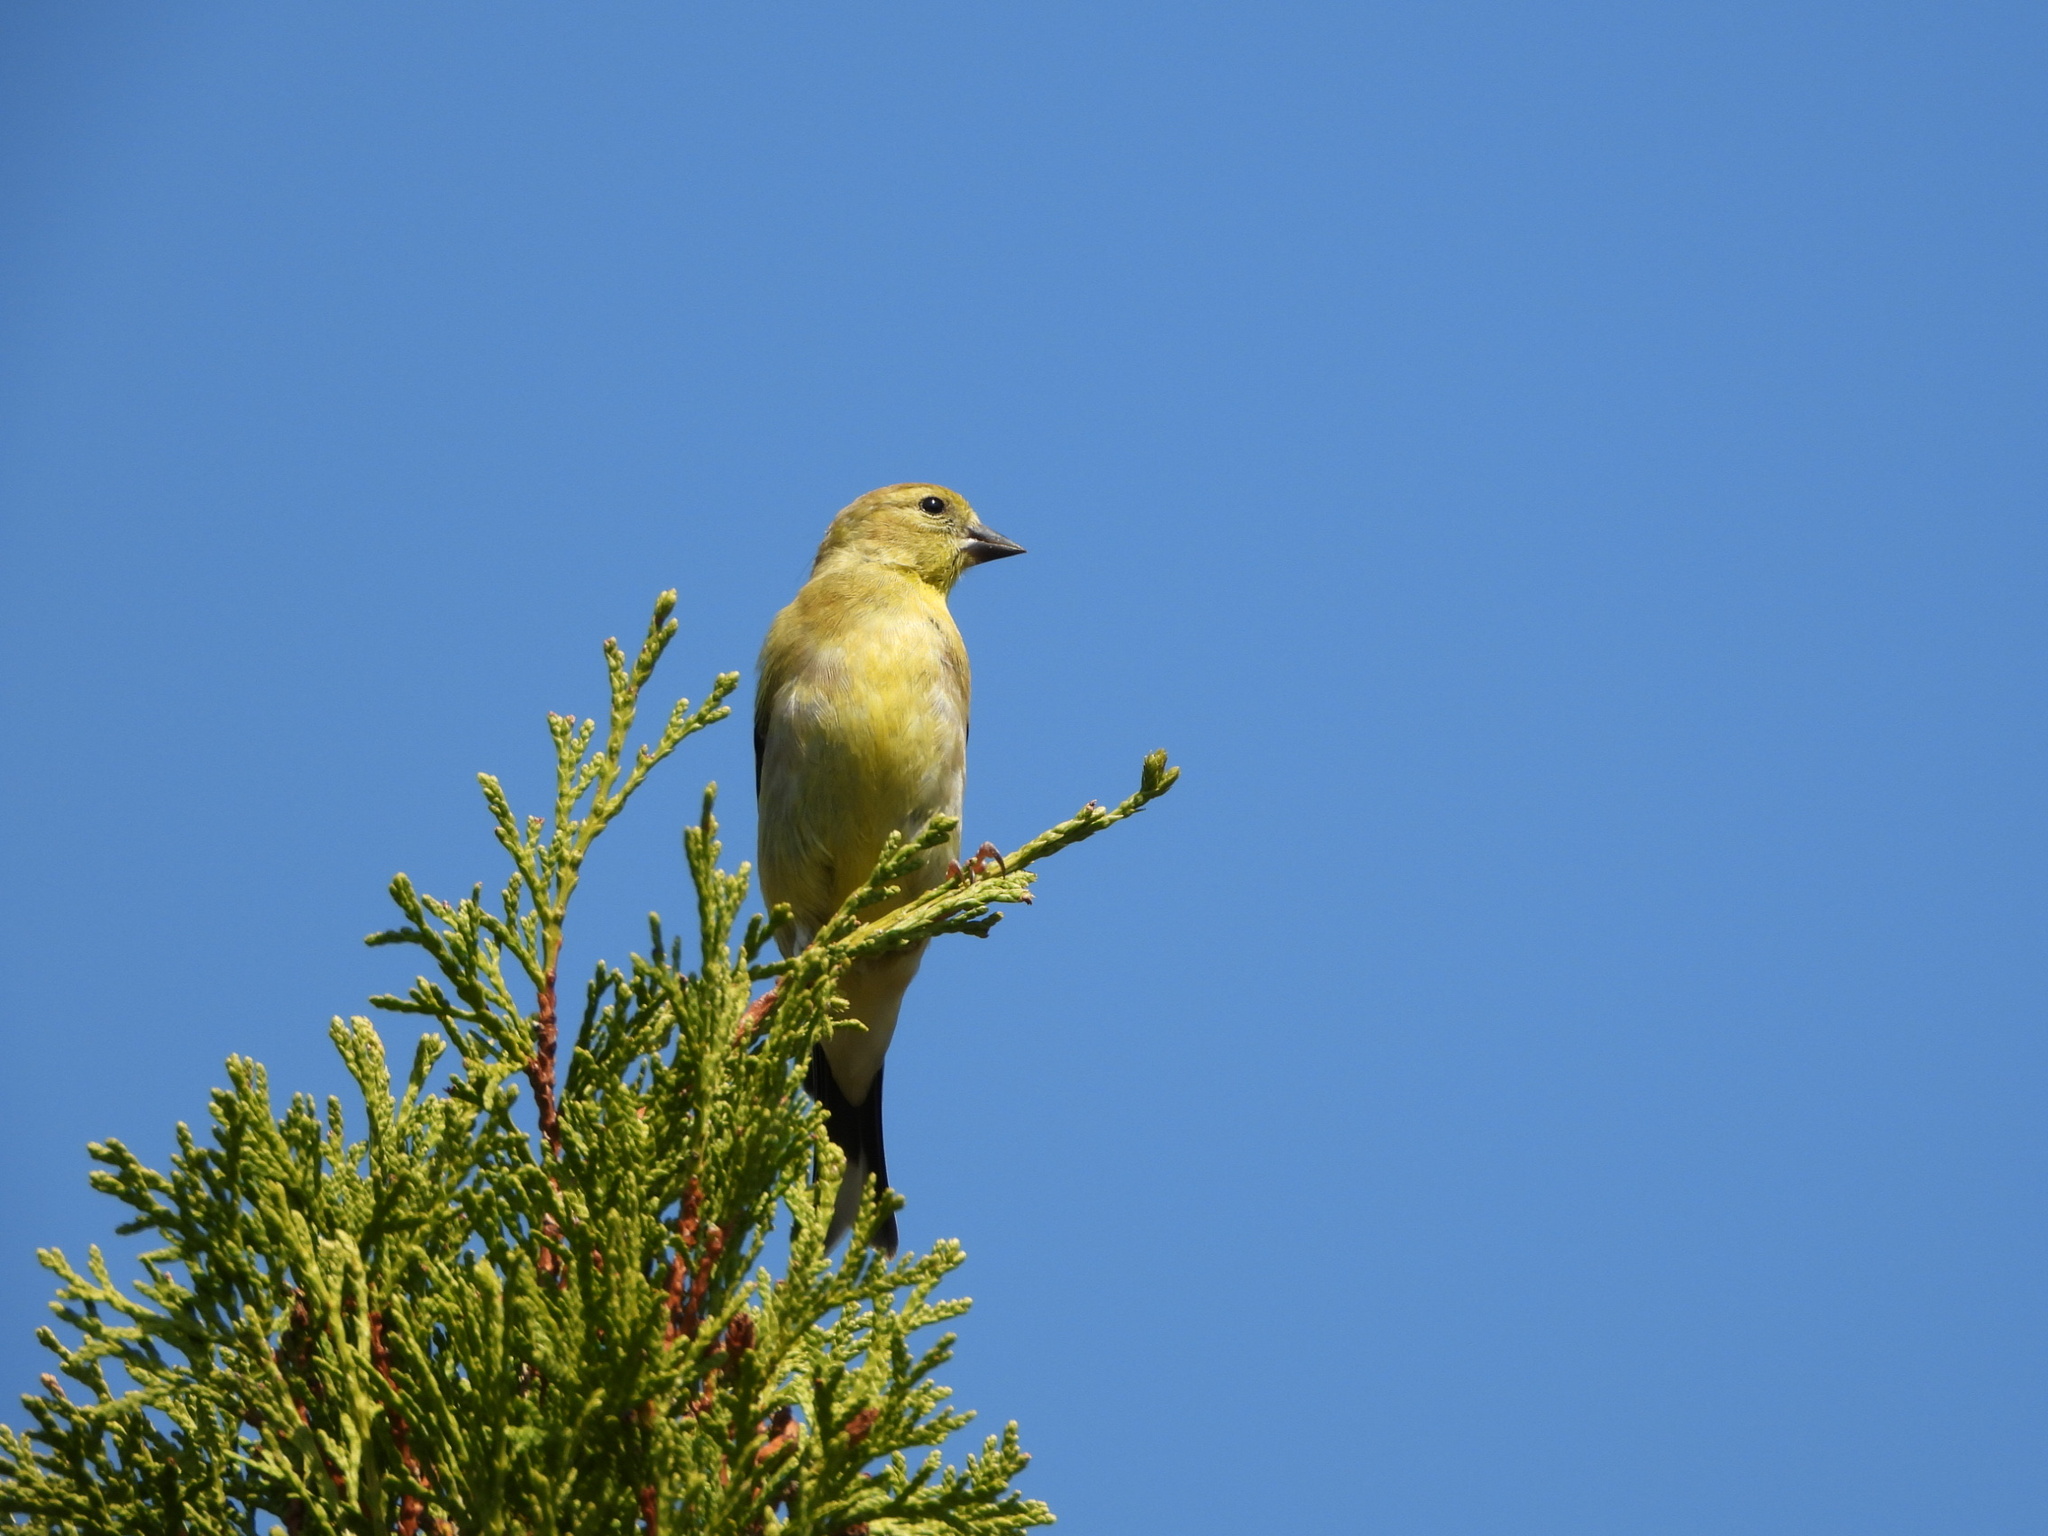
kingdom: Animalia
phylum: Chordata
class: Aves
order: Passeriformes
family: Fringillidae
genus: Spinus
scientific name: Spinus tristis
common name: American goldfinch
